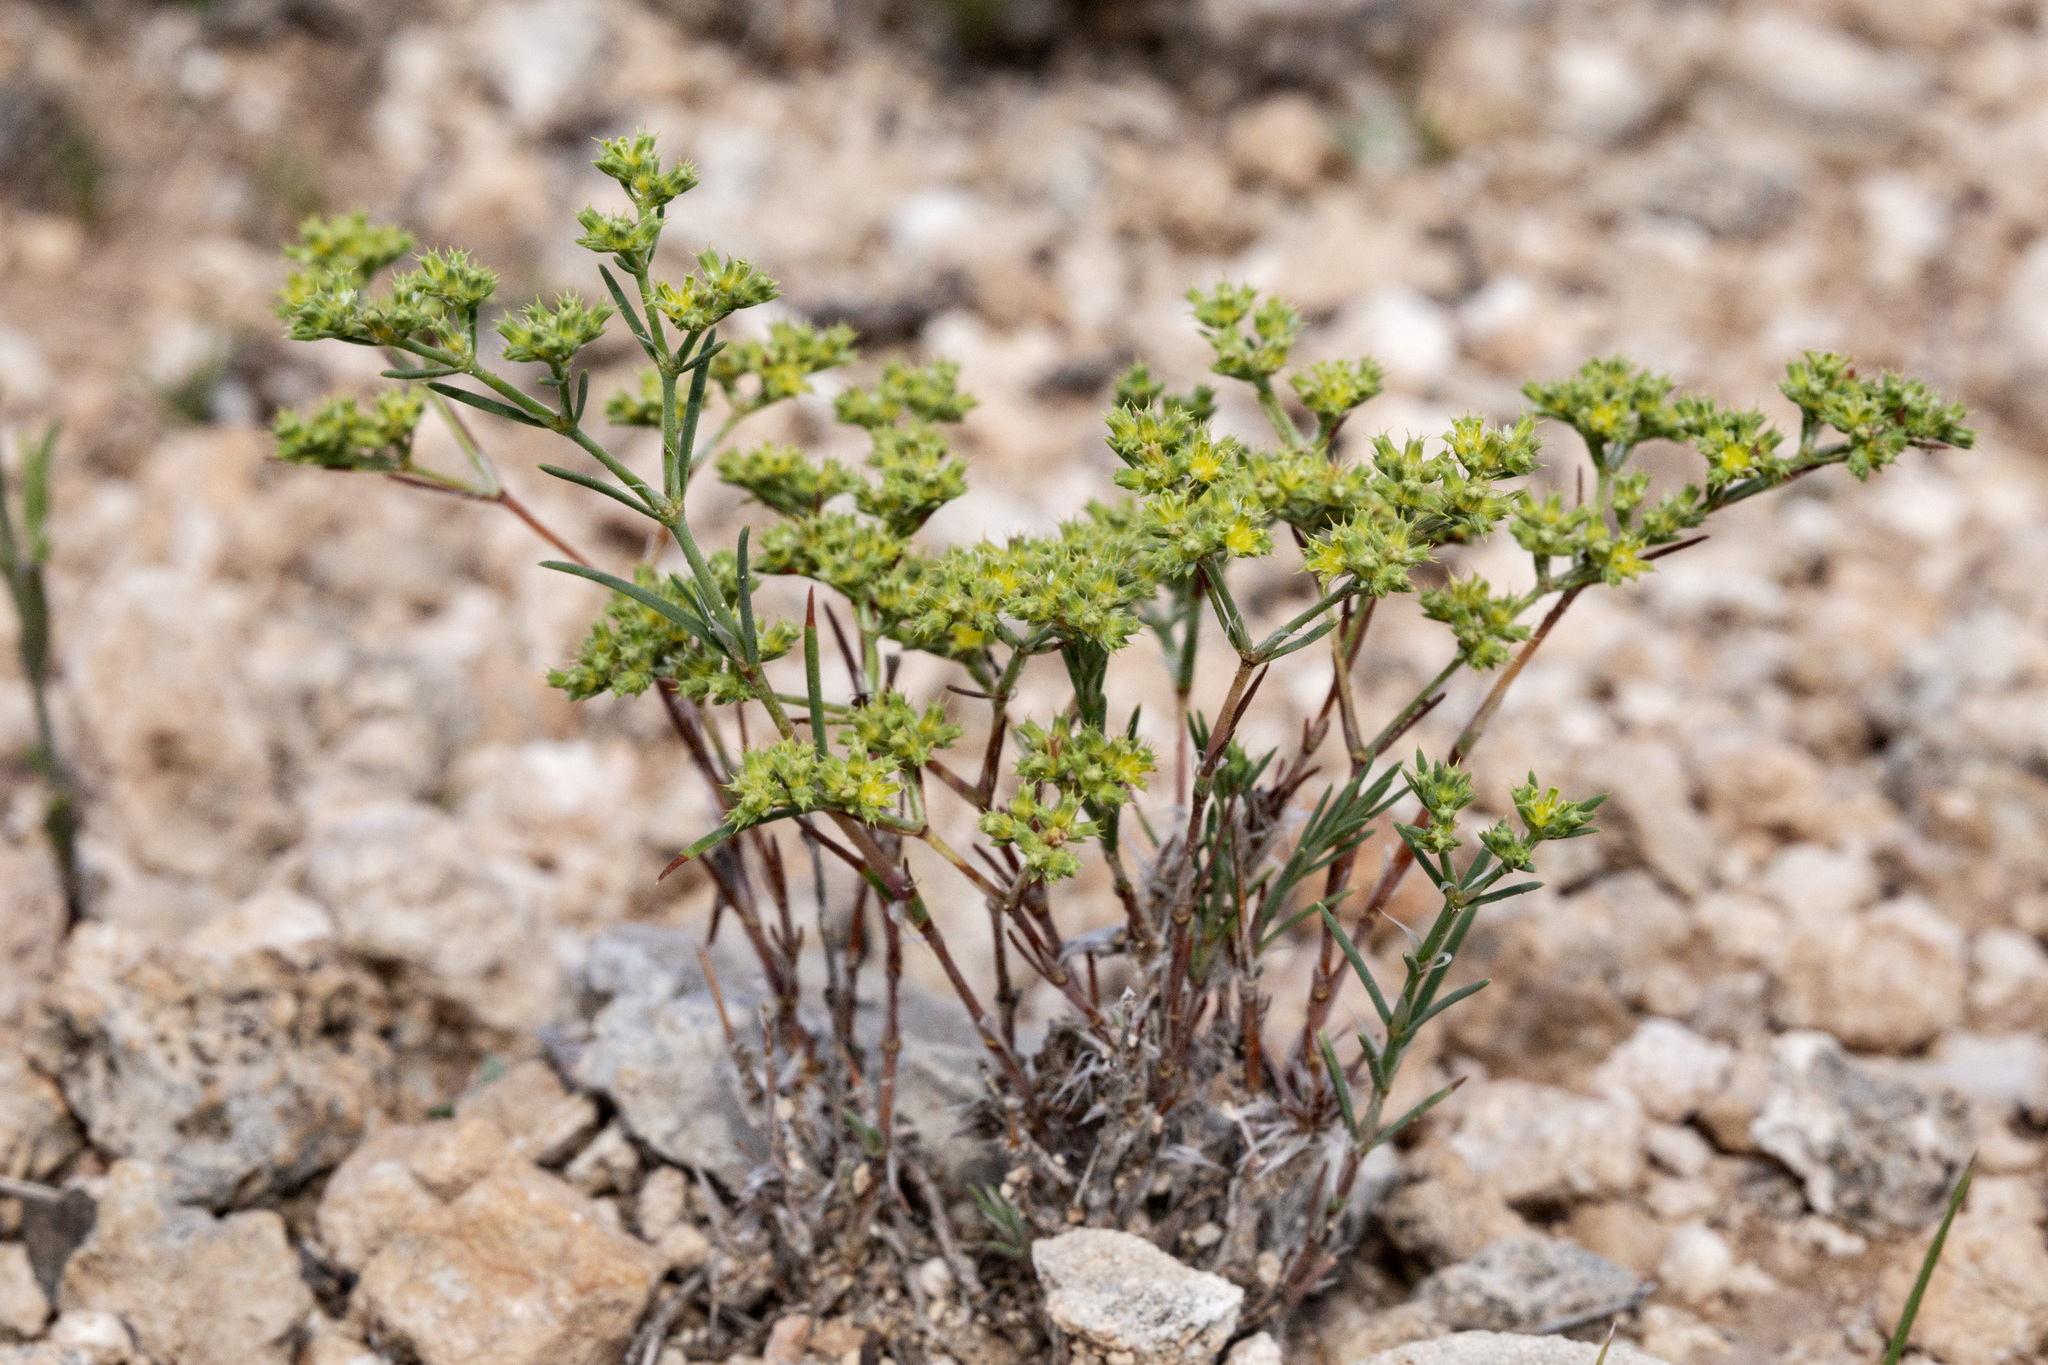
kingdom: Plantae
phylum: Tracheophyta
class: Magnoliopsida
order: Caryophyllales
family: Caryophyllaceae
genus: Paronychia
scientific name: Paronychia jamesii
